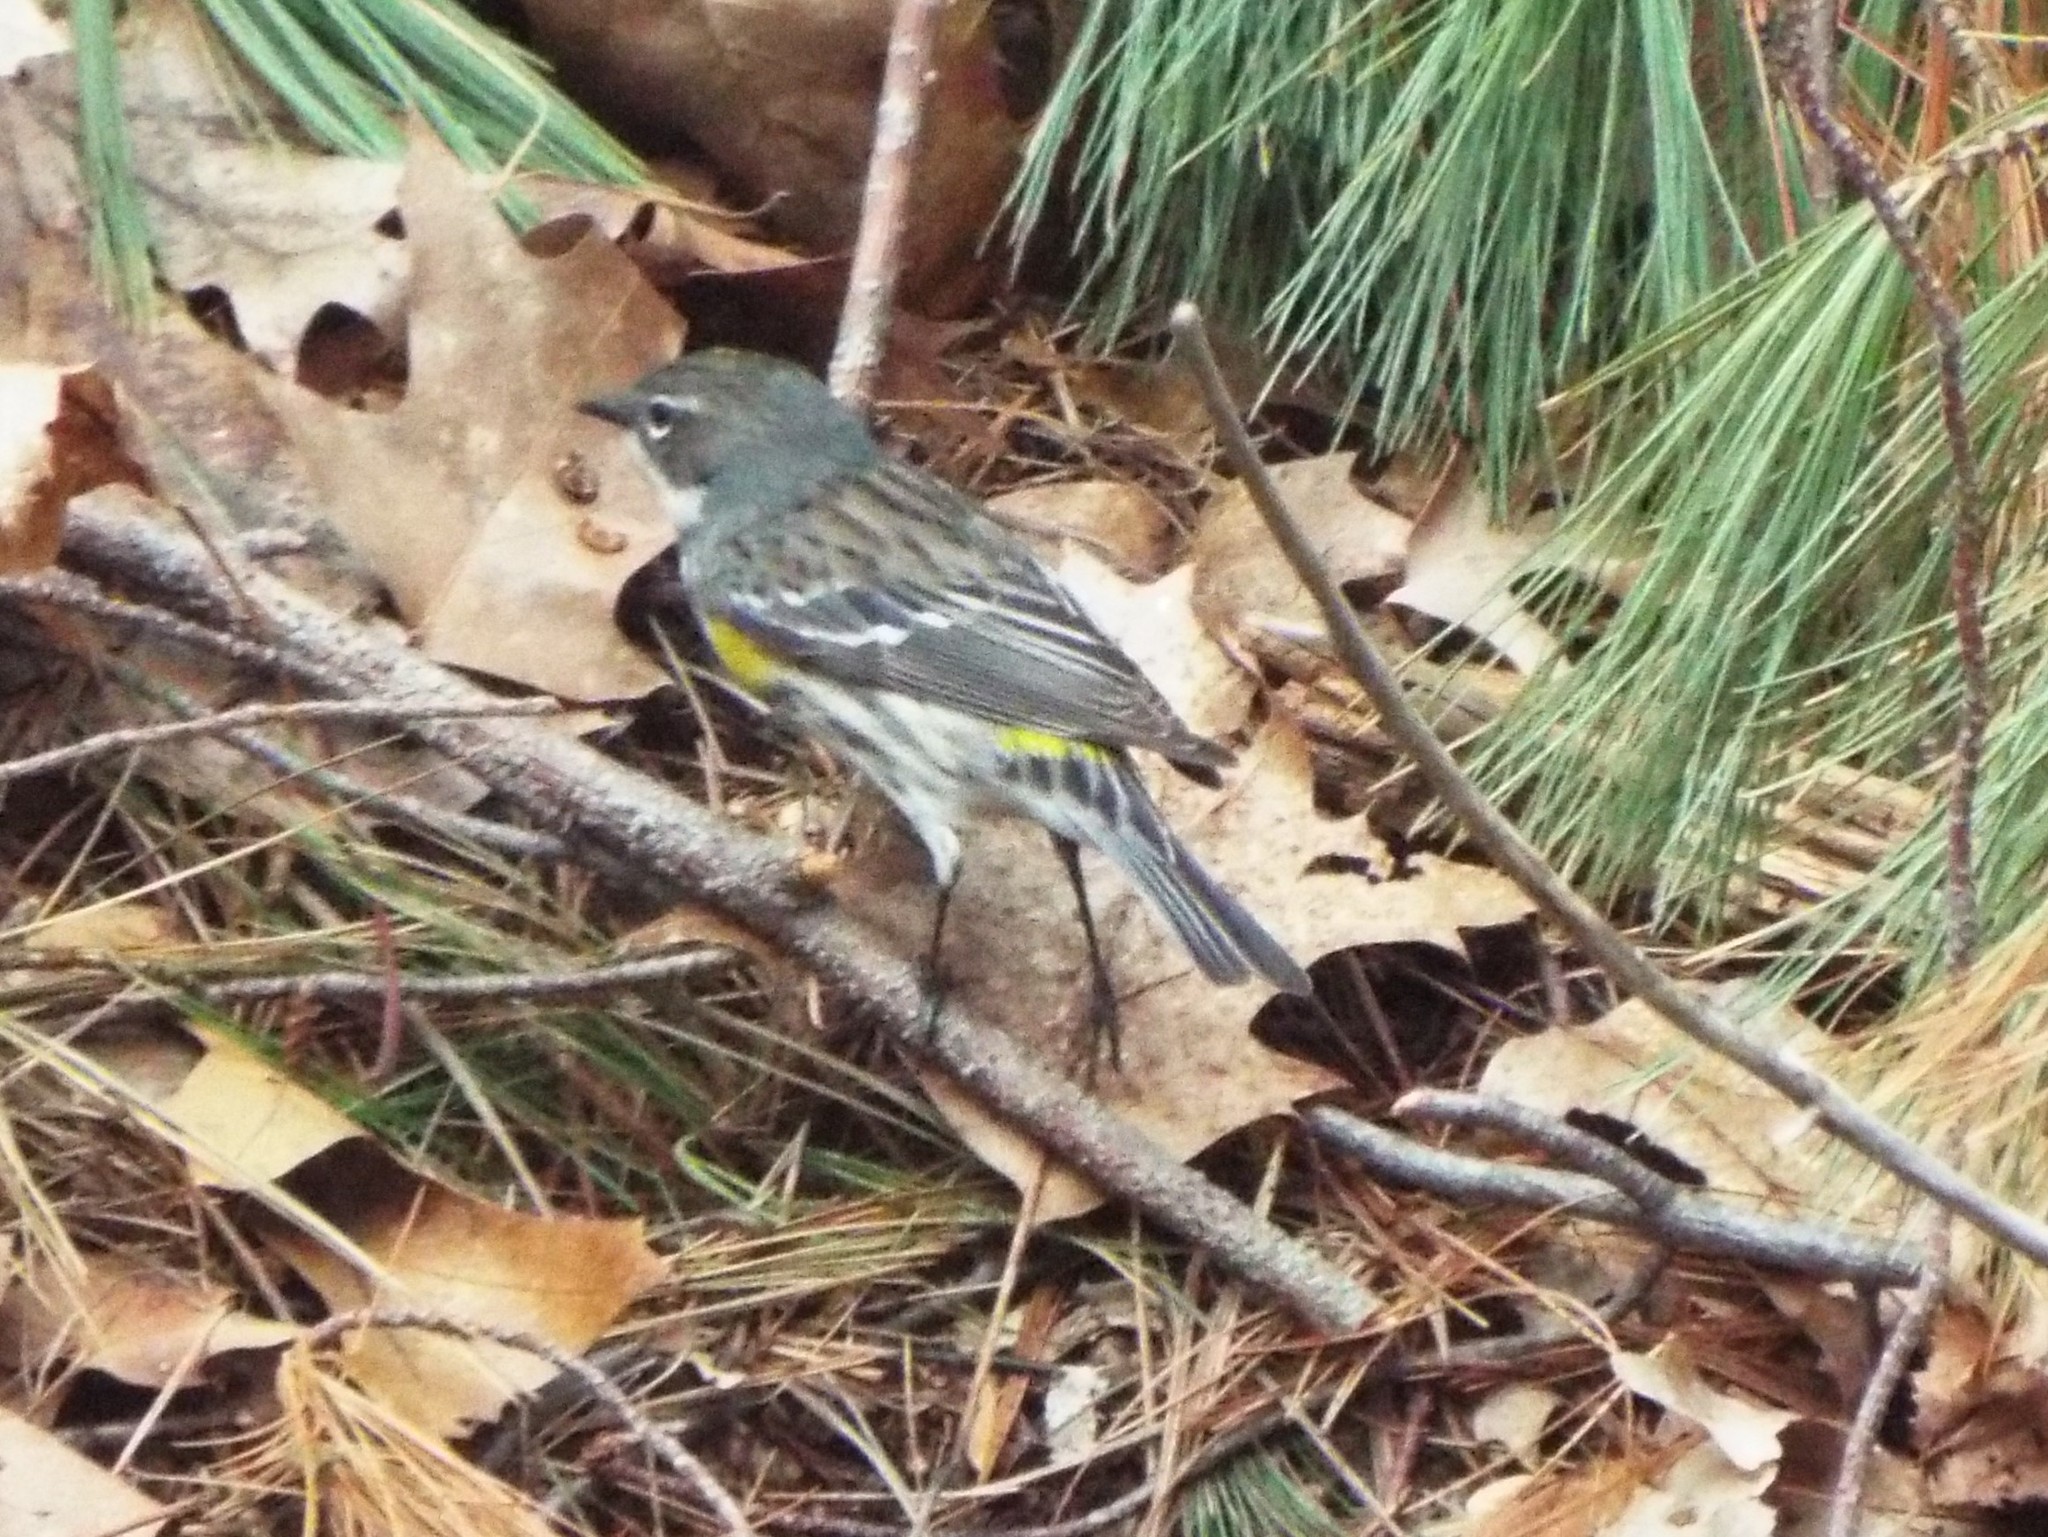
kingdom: Animalia
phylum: Chordata
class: Aves
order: Passeriformes
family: Parulidae
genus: Setophaga
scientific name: Setophaga coronata
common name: Myrtle warbler
